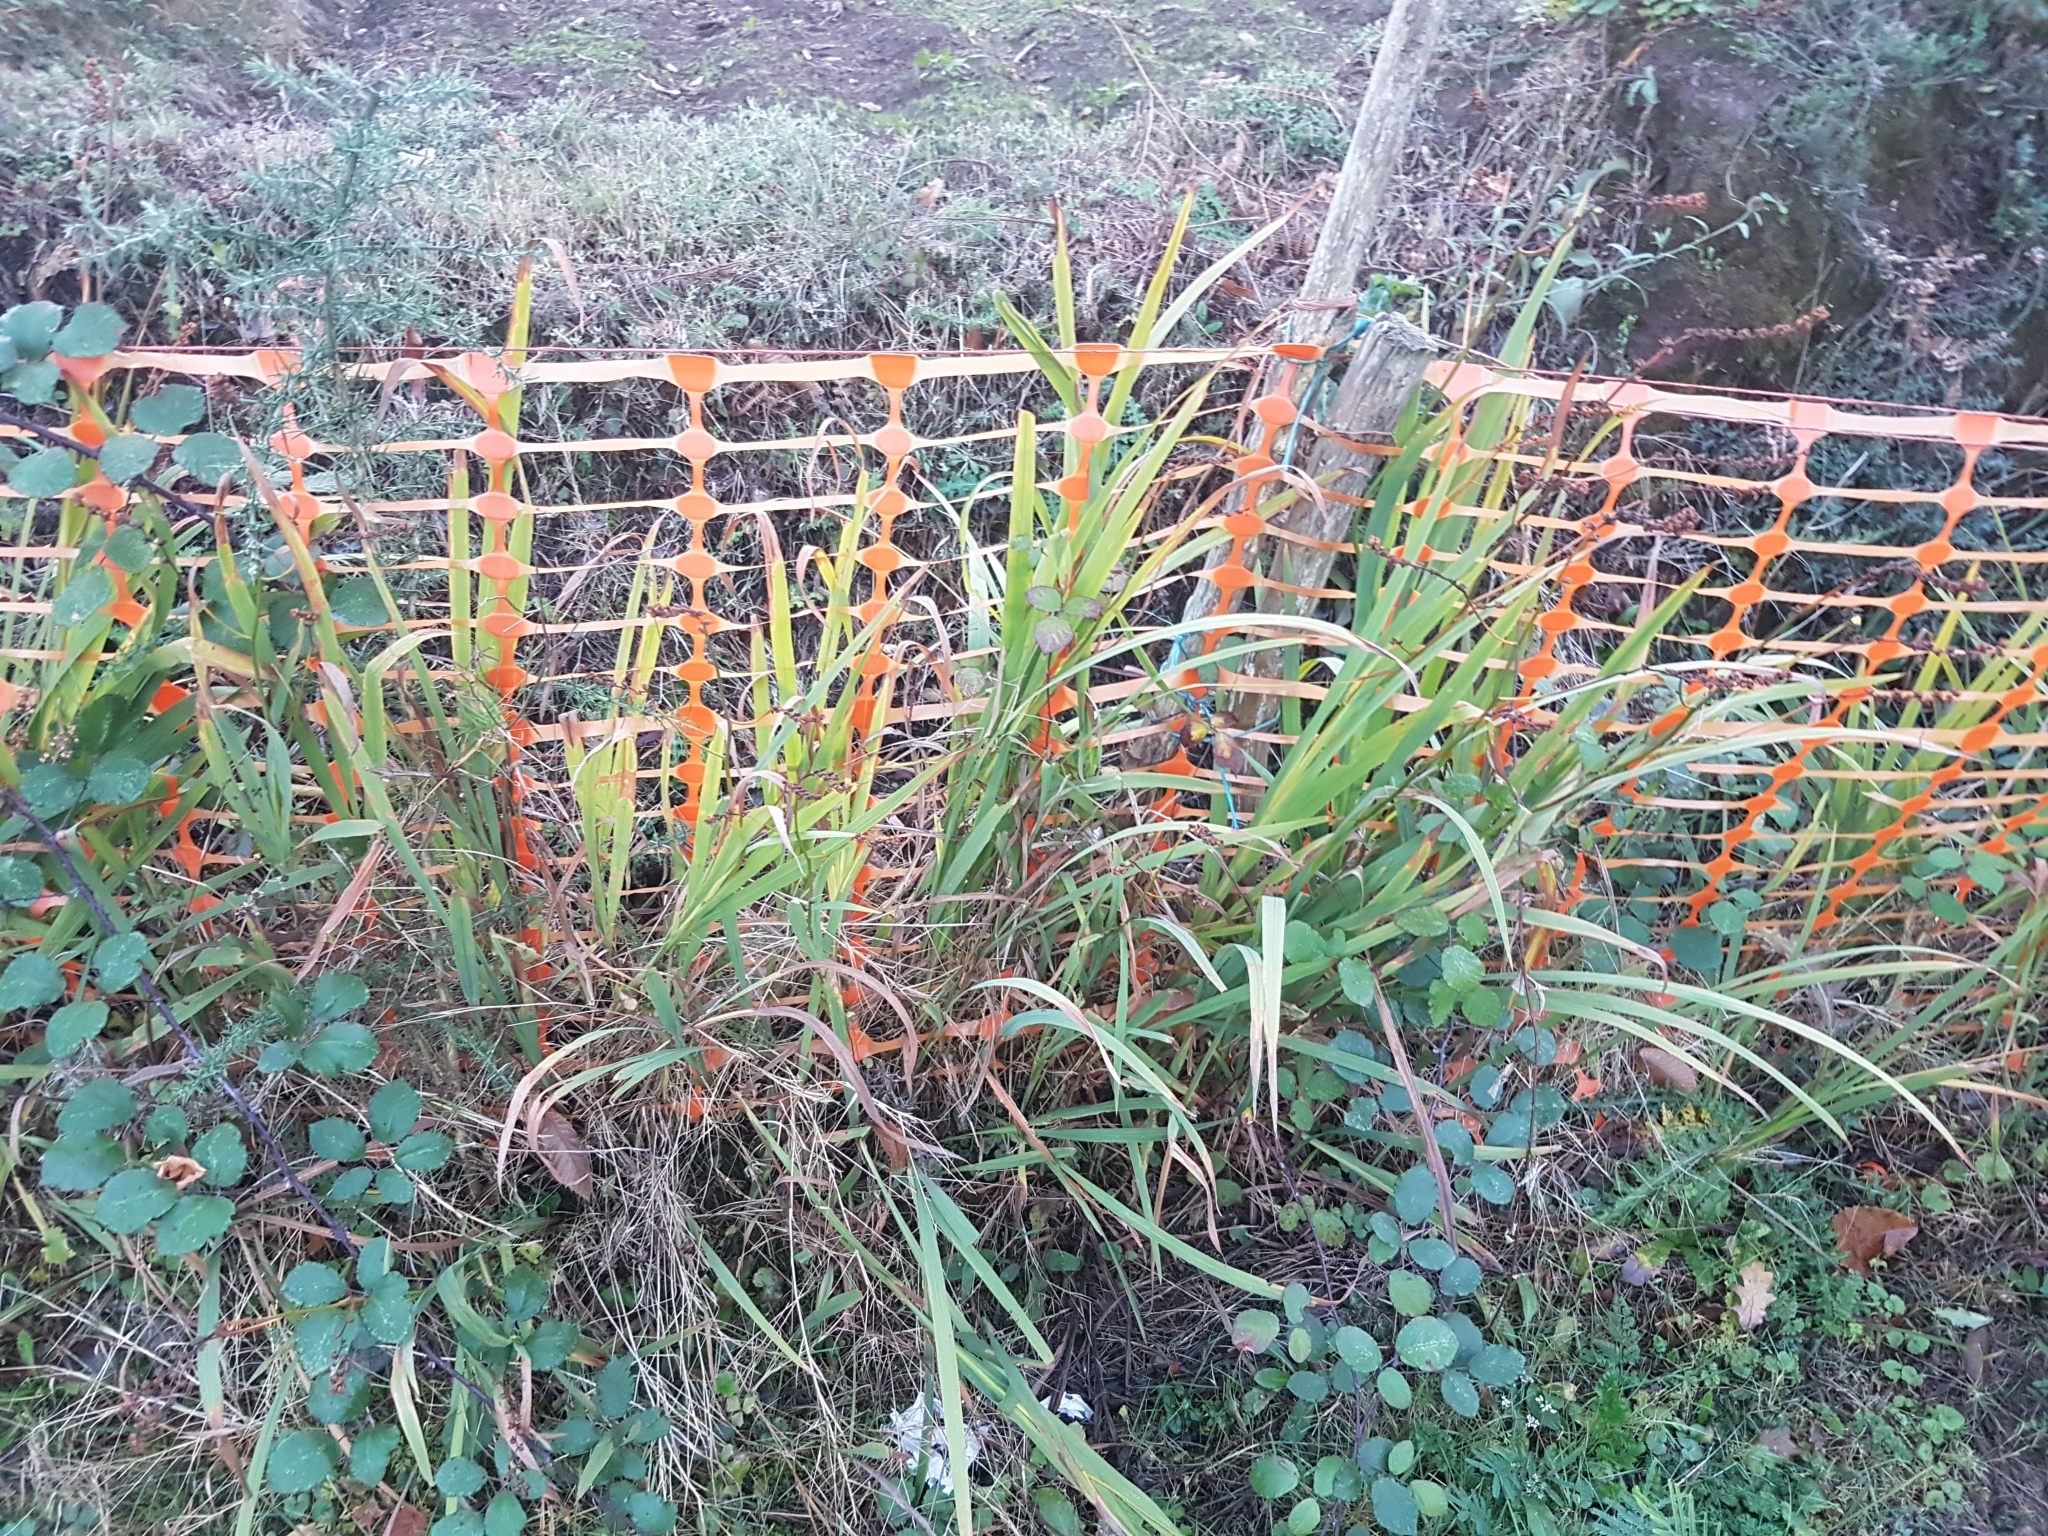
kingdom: Plantae
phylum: Tracheophyta
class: Liliopsida
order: Asparagales
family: Iridaceae
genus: Crocosmia
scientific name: Crocosmia crocosmiiflora
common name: Montbretia
